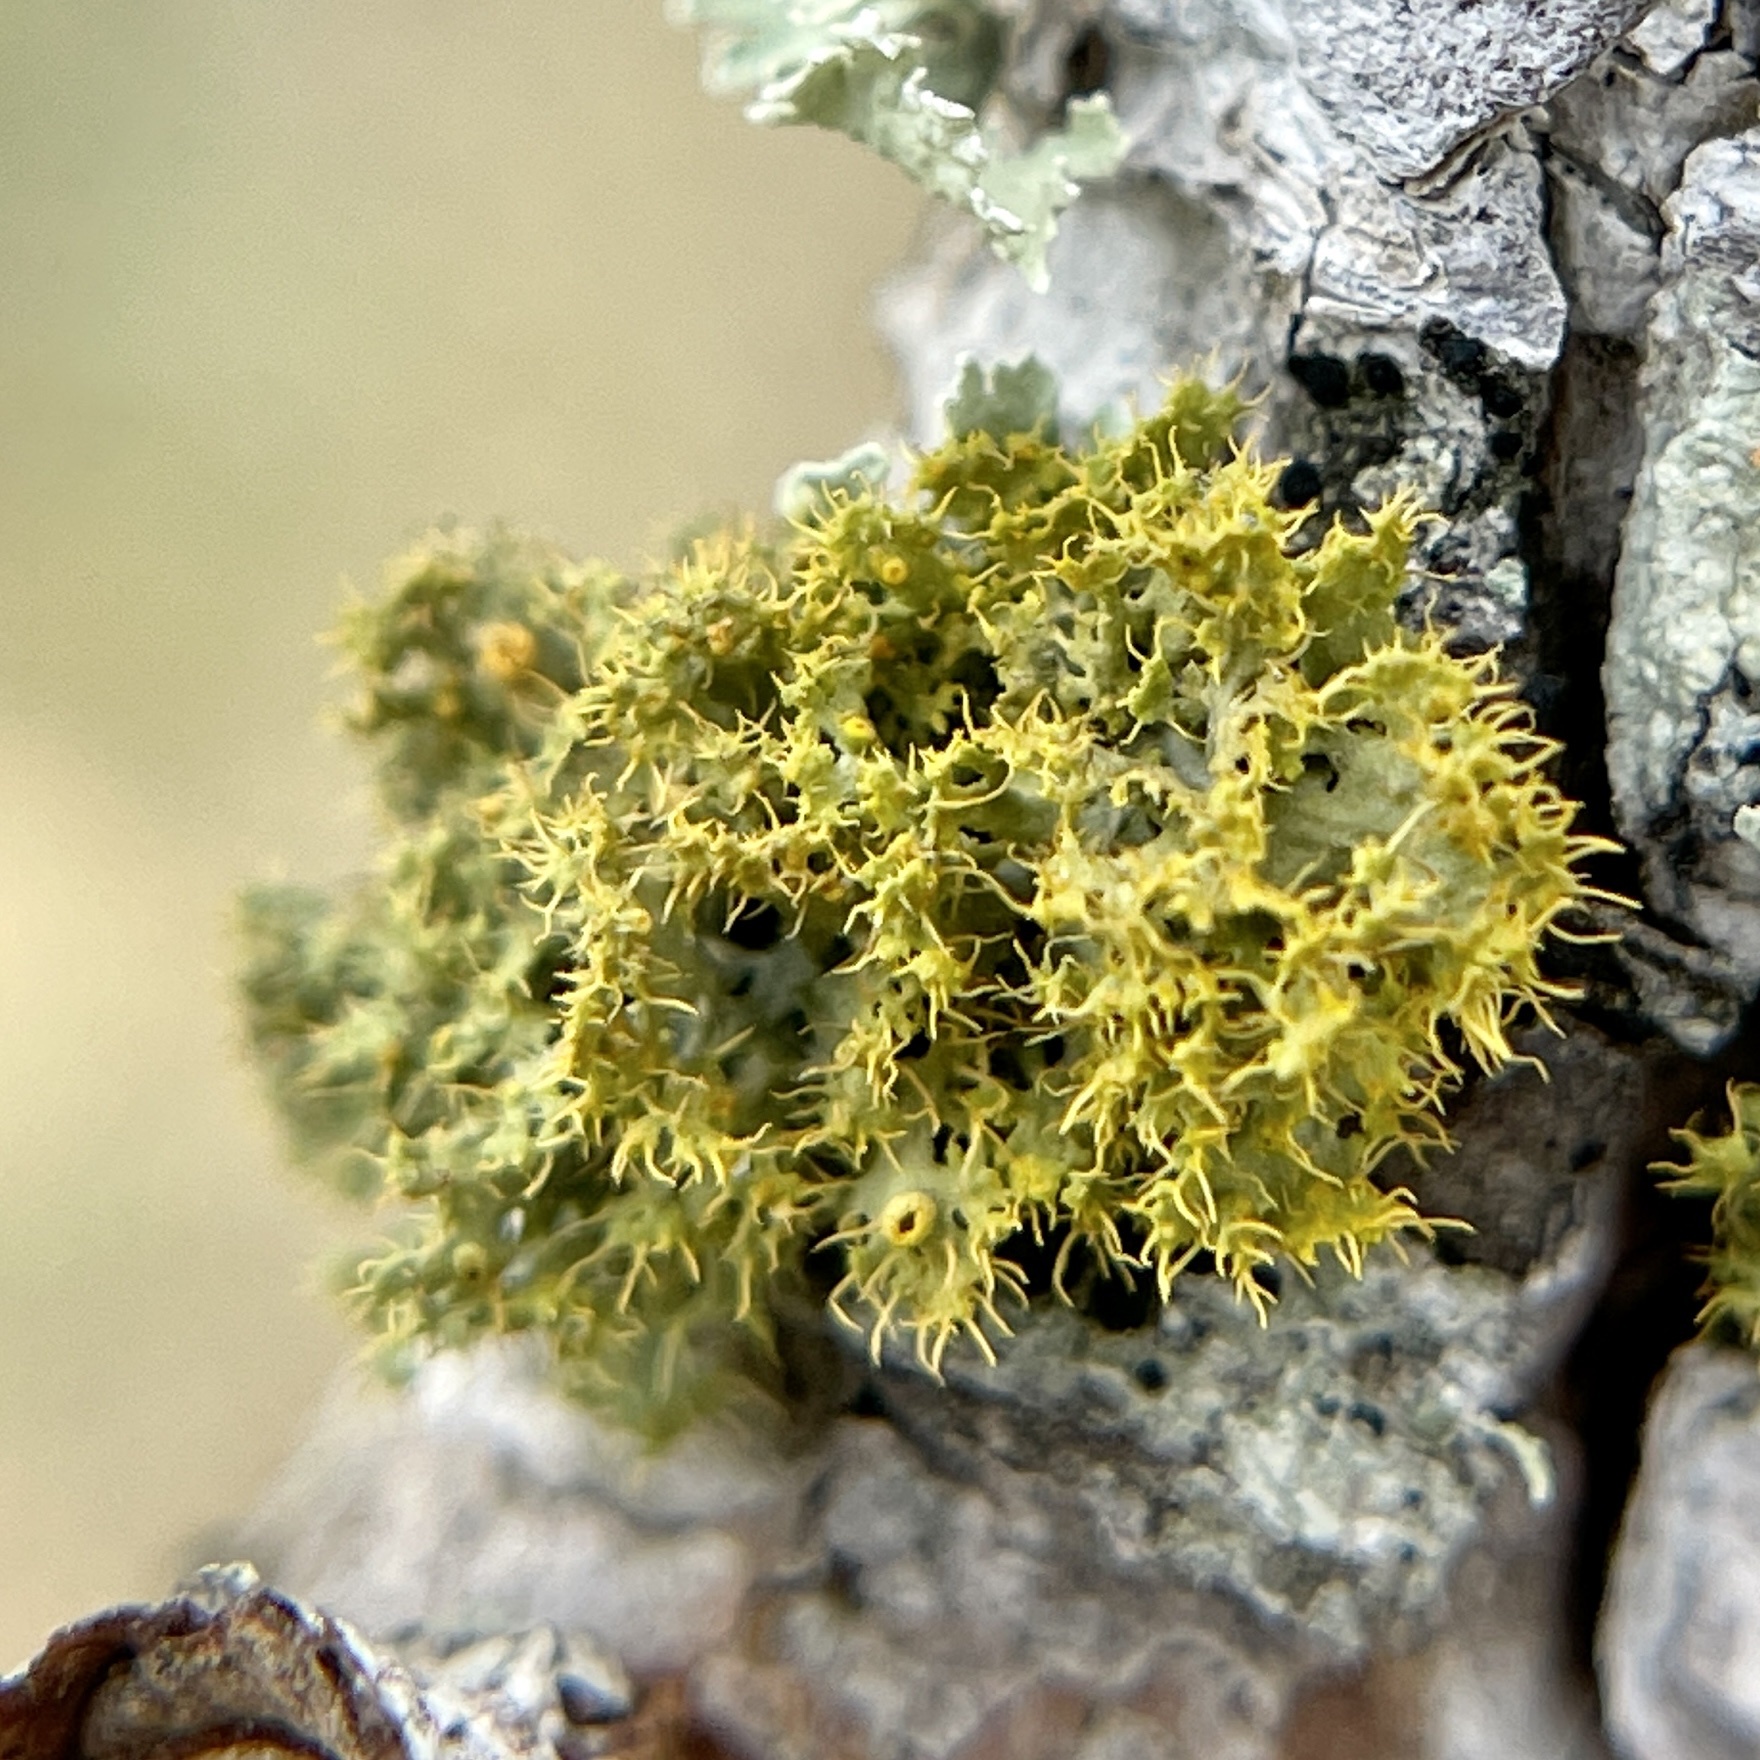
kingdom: Fungi
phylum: Ascomycota
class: Lecanoromycetes
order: Teloschistales
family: Teloschistaceae
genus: Niorma
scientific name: Niorma chrysophthalma
